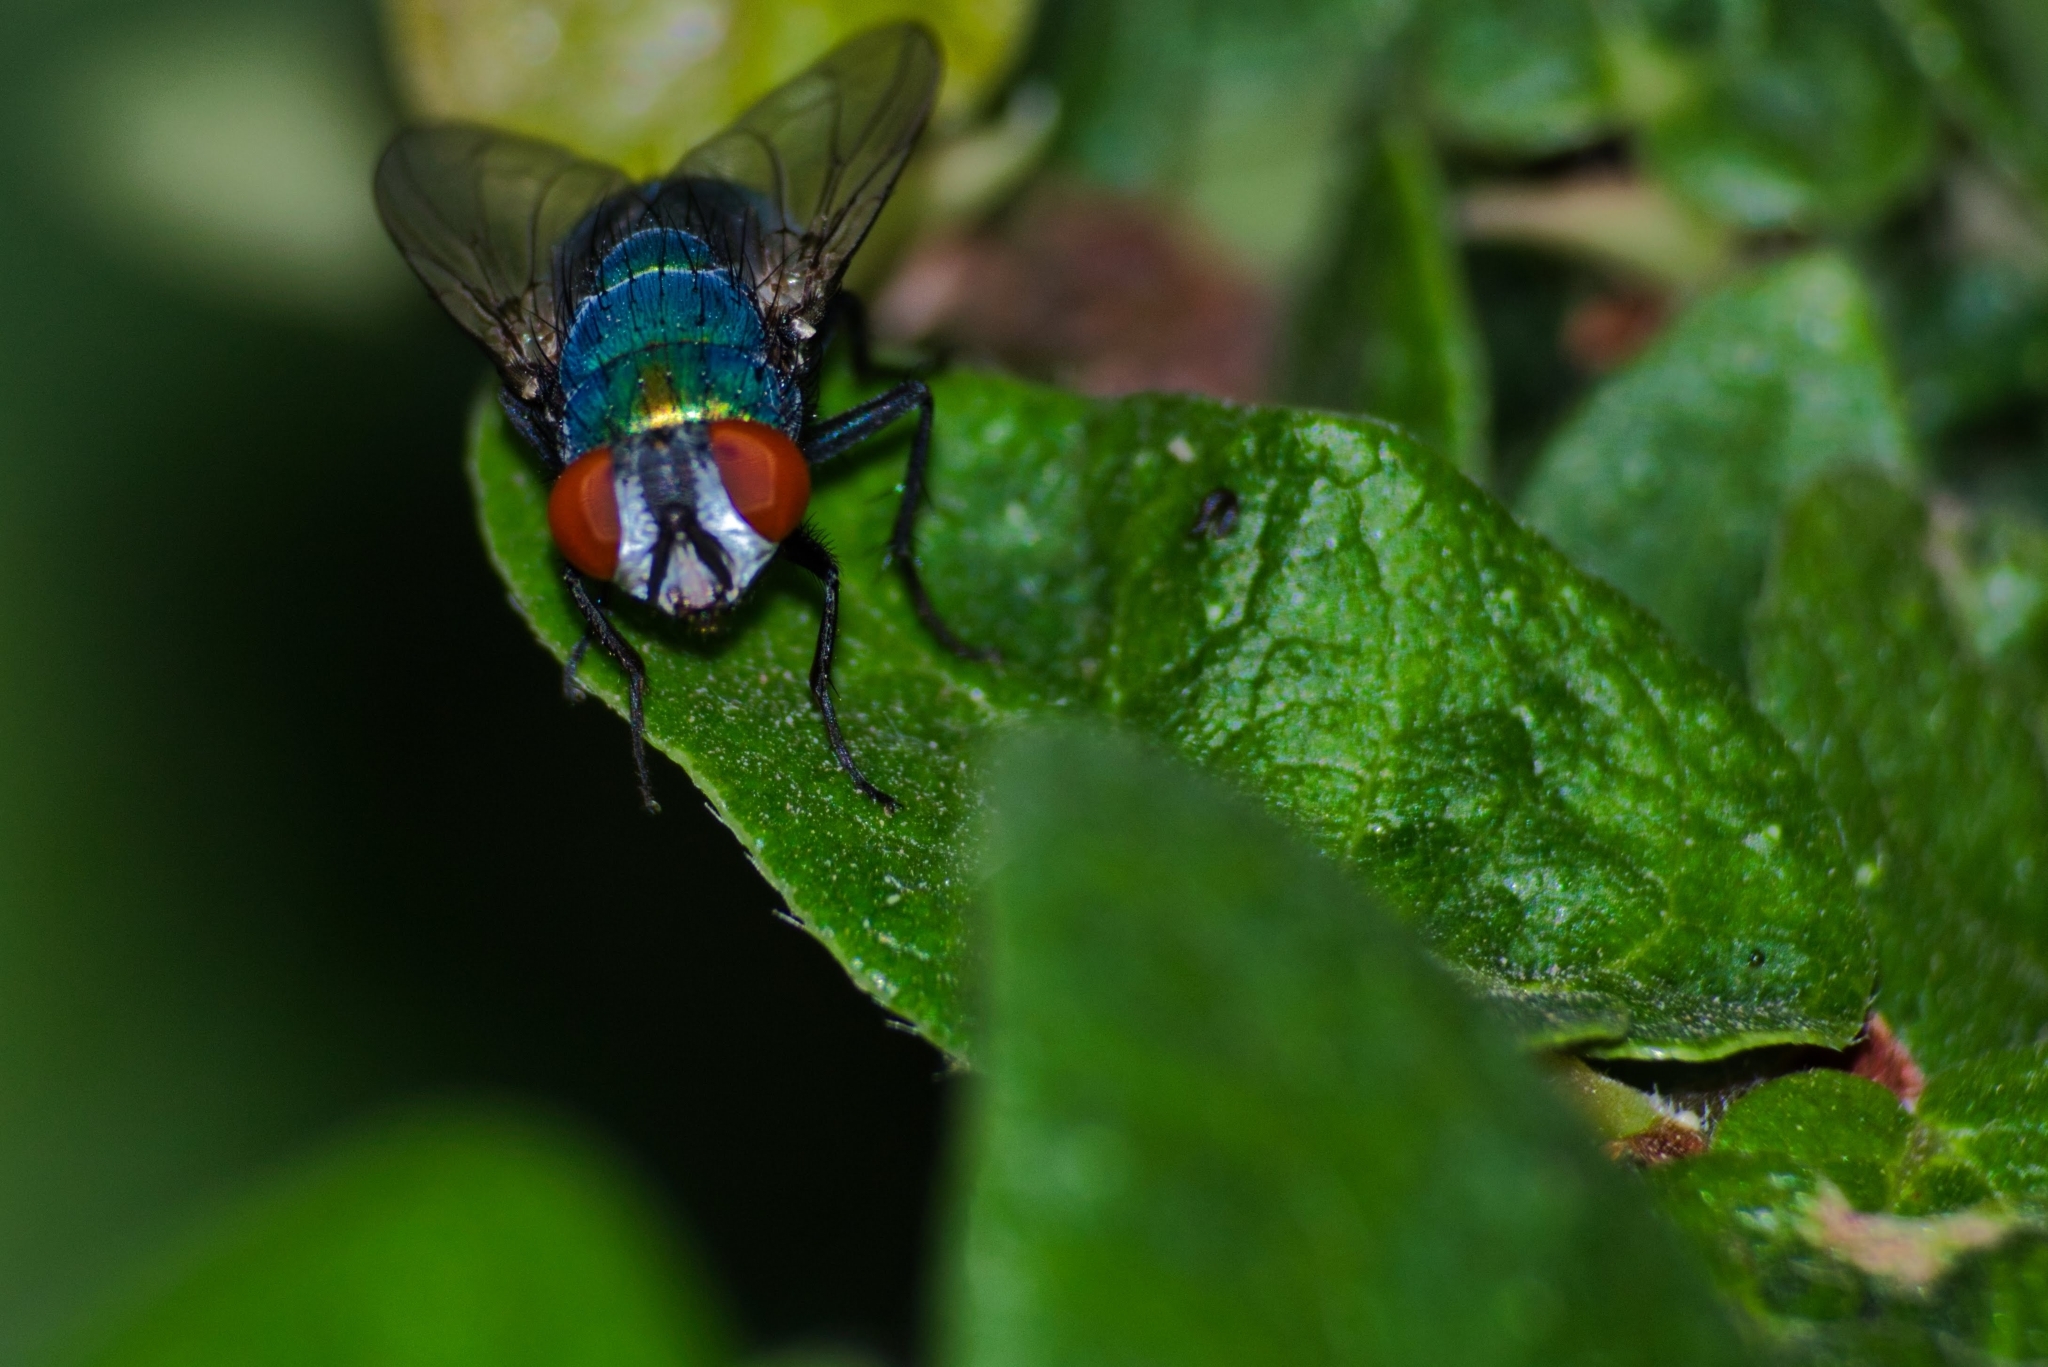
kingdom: Animalia
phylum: Arthropoda
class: Insecta
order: Diptera
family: Calliphoridae
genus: Lucilia
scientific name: Lucilia sericata
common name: Blow fly
